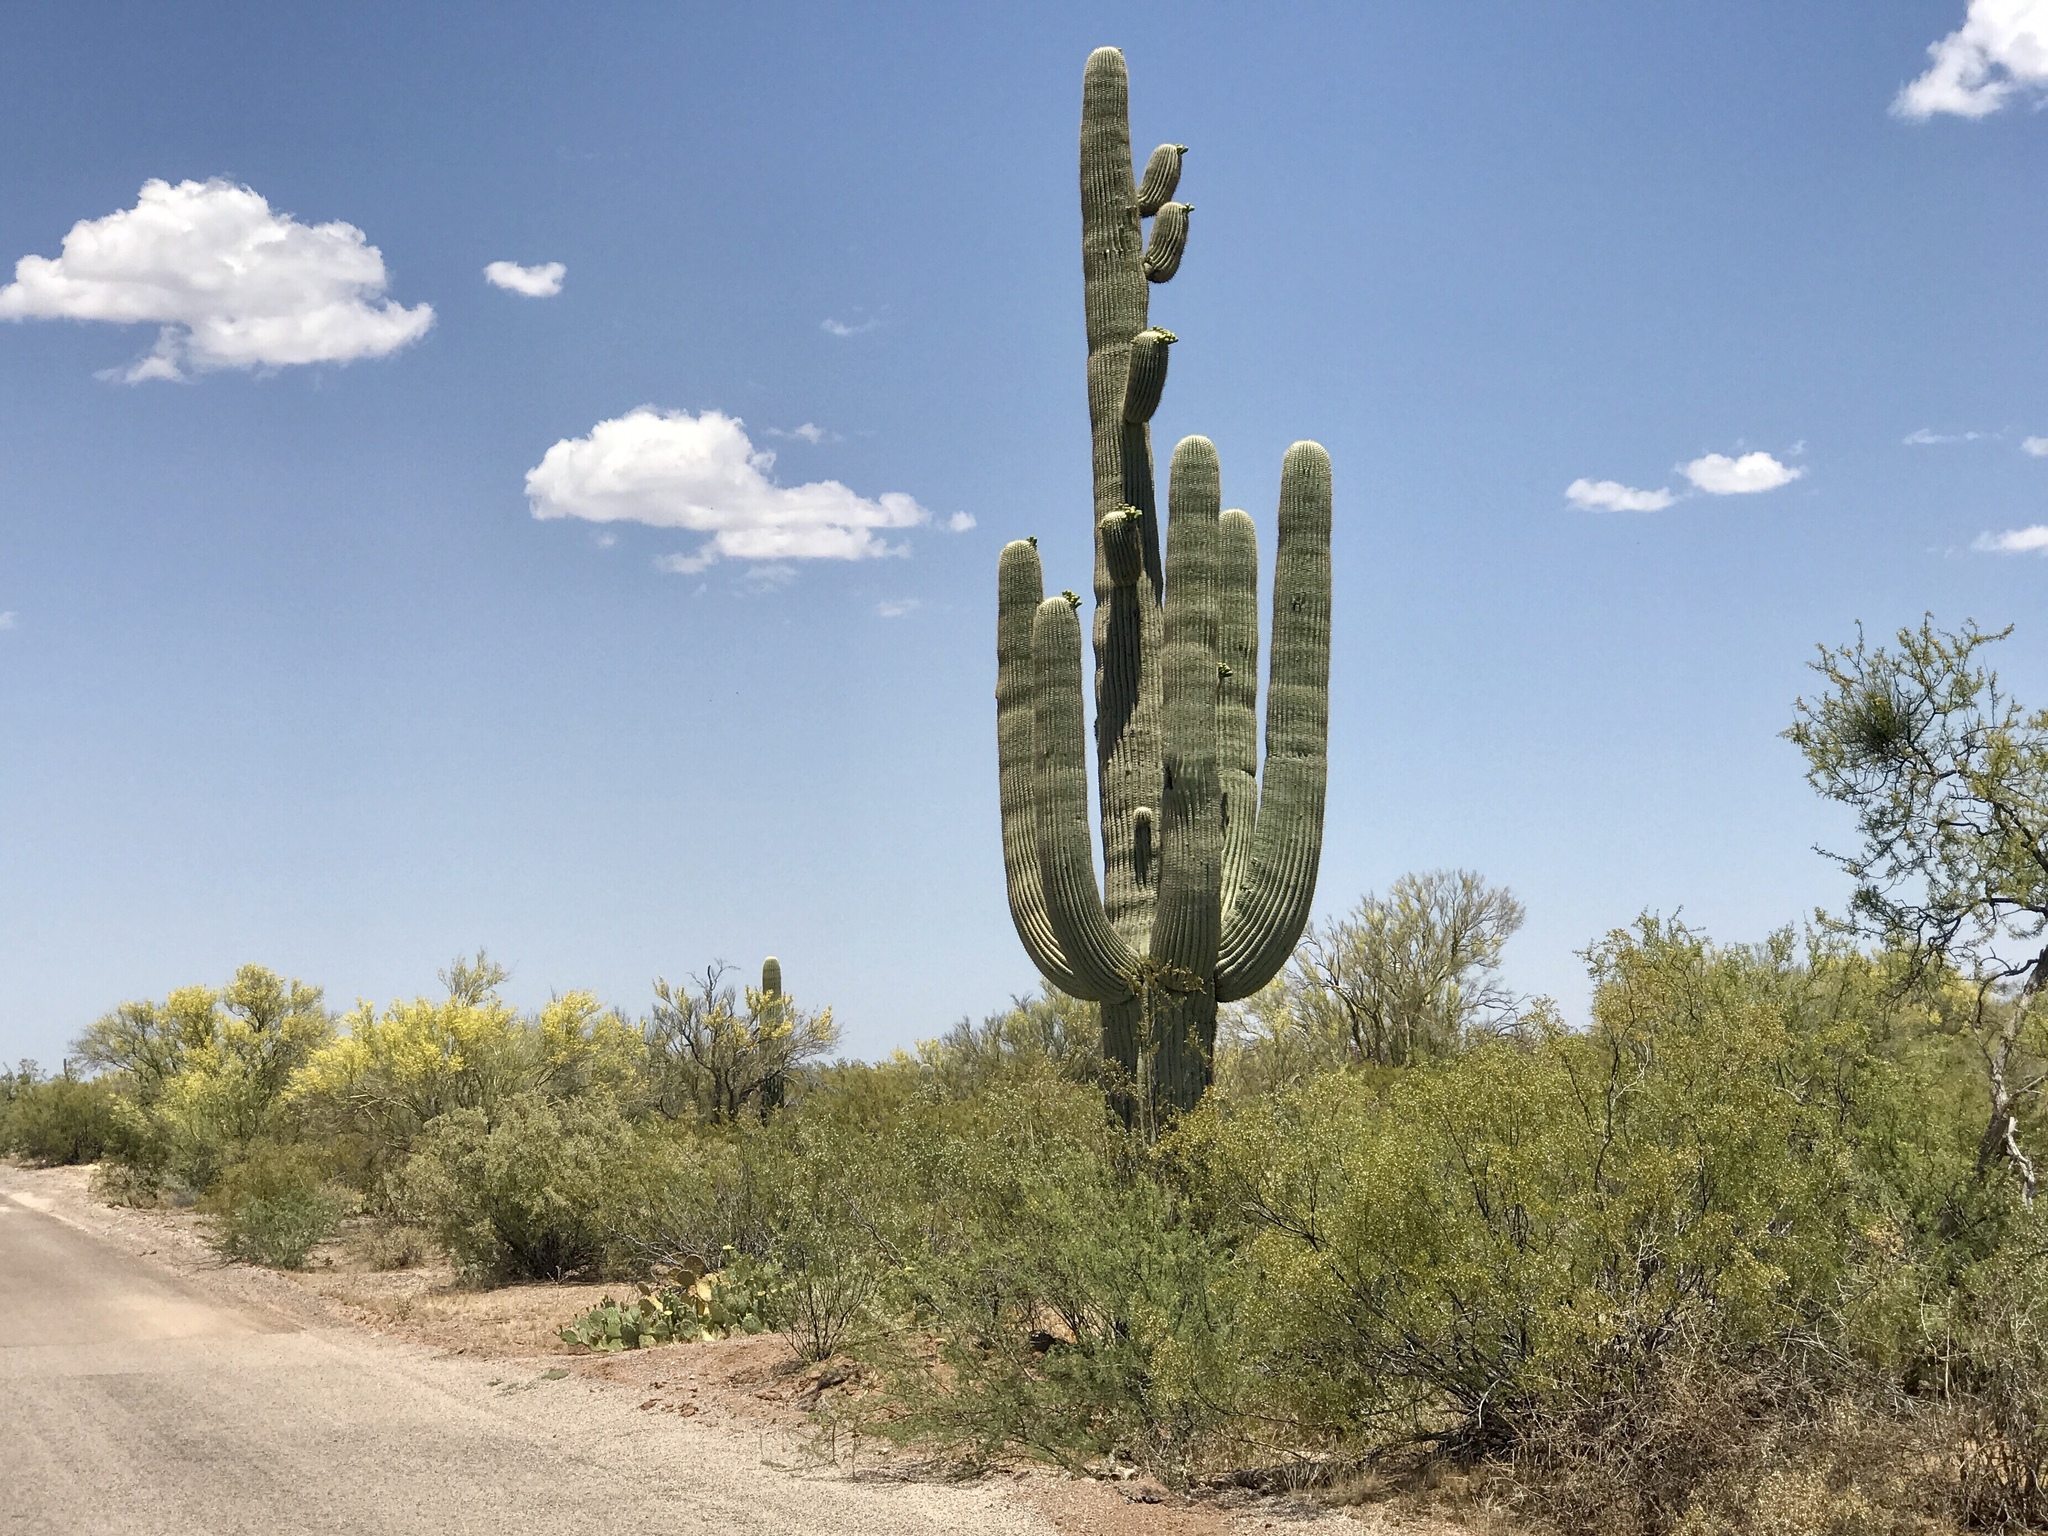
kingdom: Plantae
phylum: Tracheophyta
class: Magnoliopsida
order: Caryophyllales
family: Cactaceae
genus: Carnegiea
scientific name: Carnegiea gigantea
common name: Saguaro
